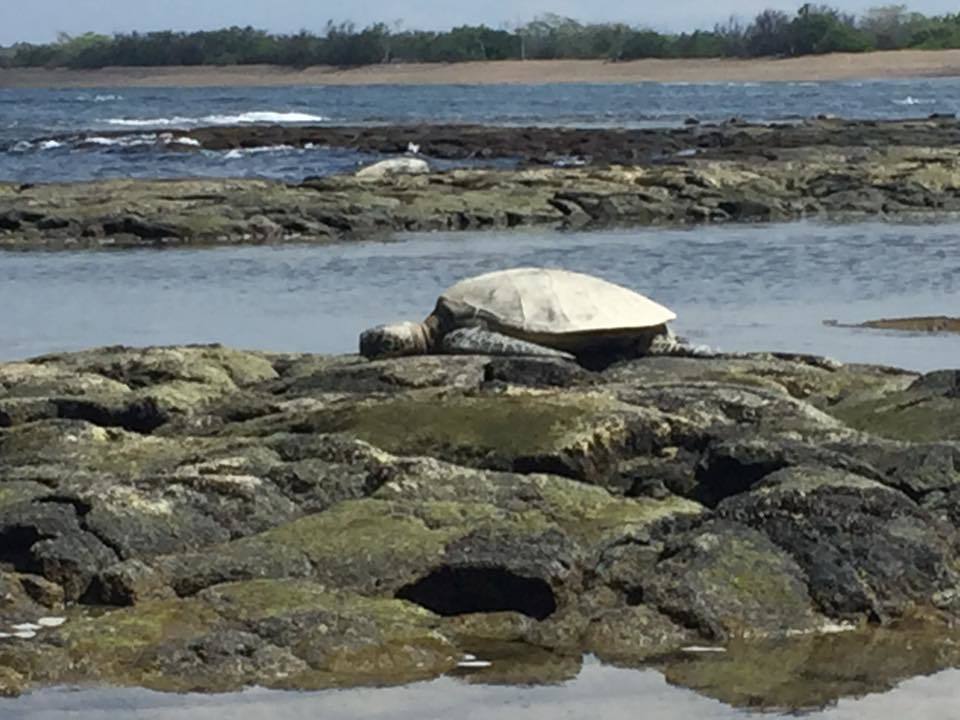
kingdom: Animalia
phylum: Chordata
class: Testudines
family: Cheloniidae
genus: Chelonia
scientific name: Chelonia mydas
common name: Green turtle
